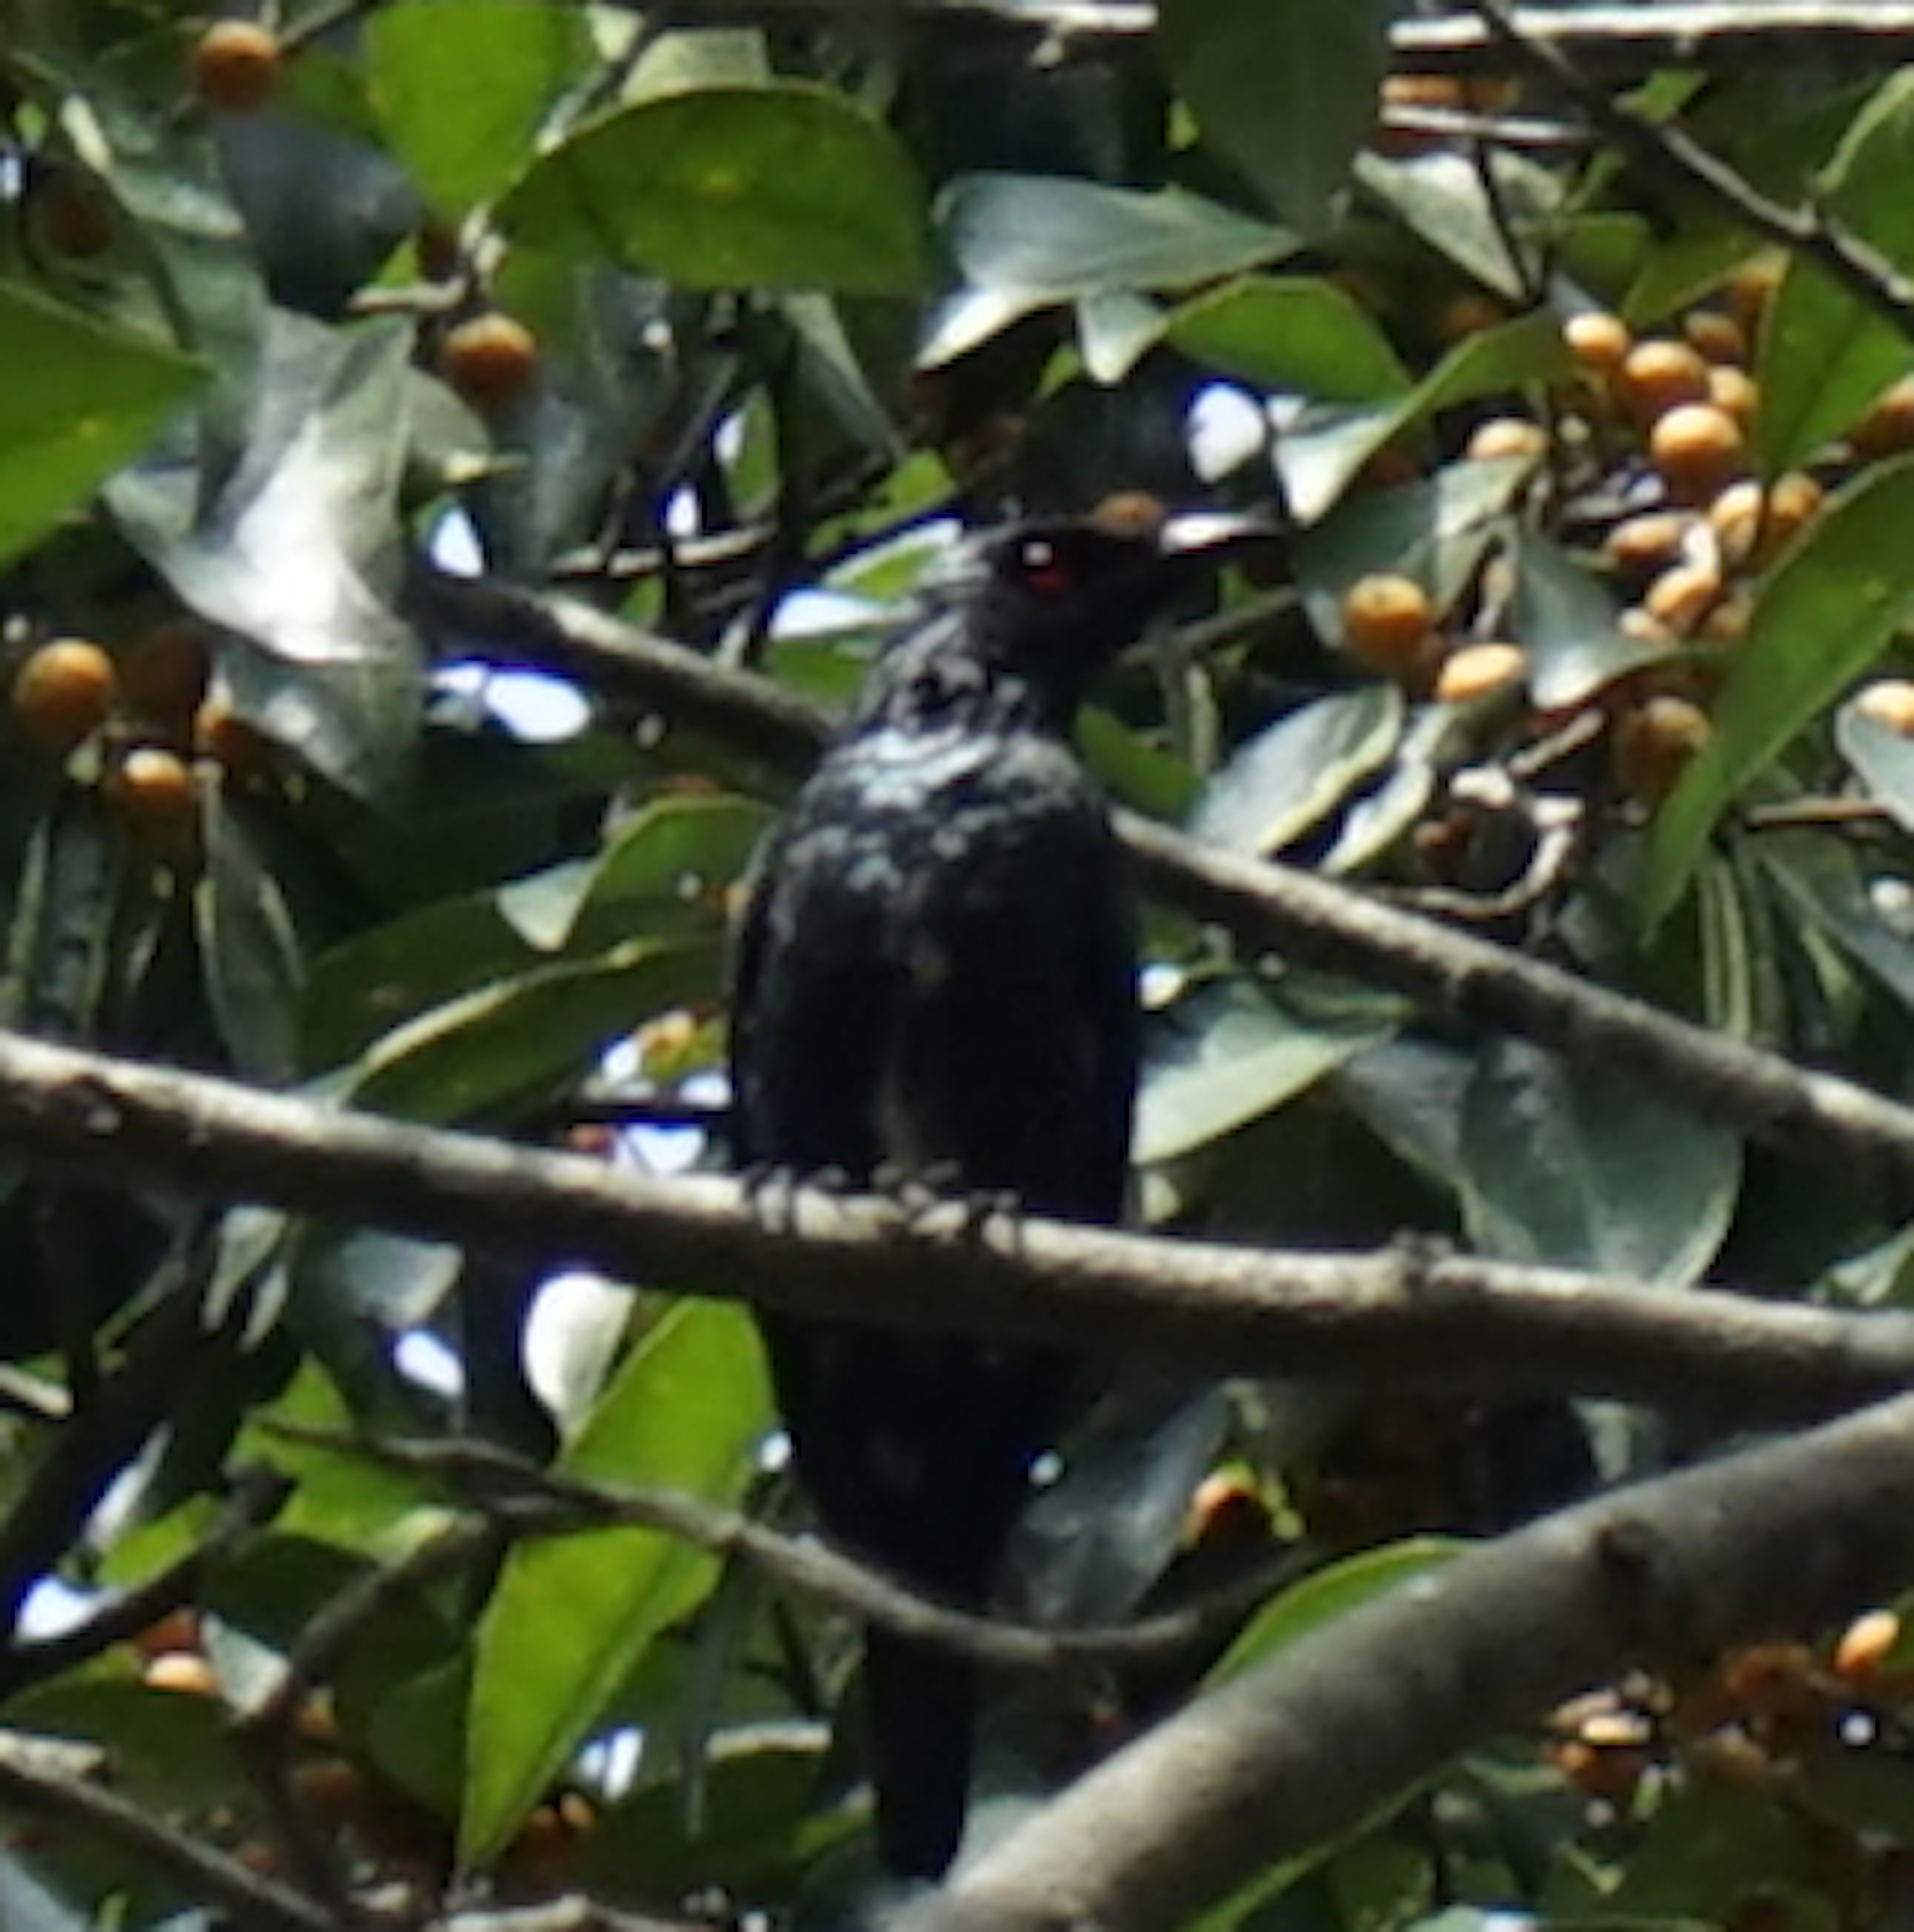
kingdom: Animalia
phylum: Chordata
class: Aves
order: Passeriformes
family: Sturnidae
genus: Aplonis
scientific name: Aplonis panayensis
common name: Asian glossy starling
